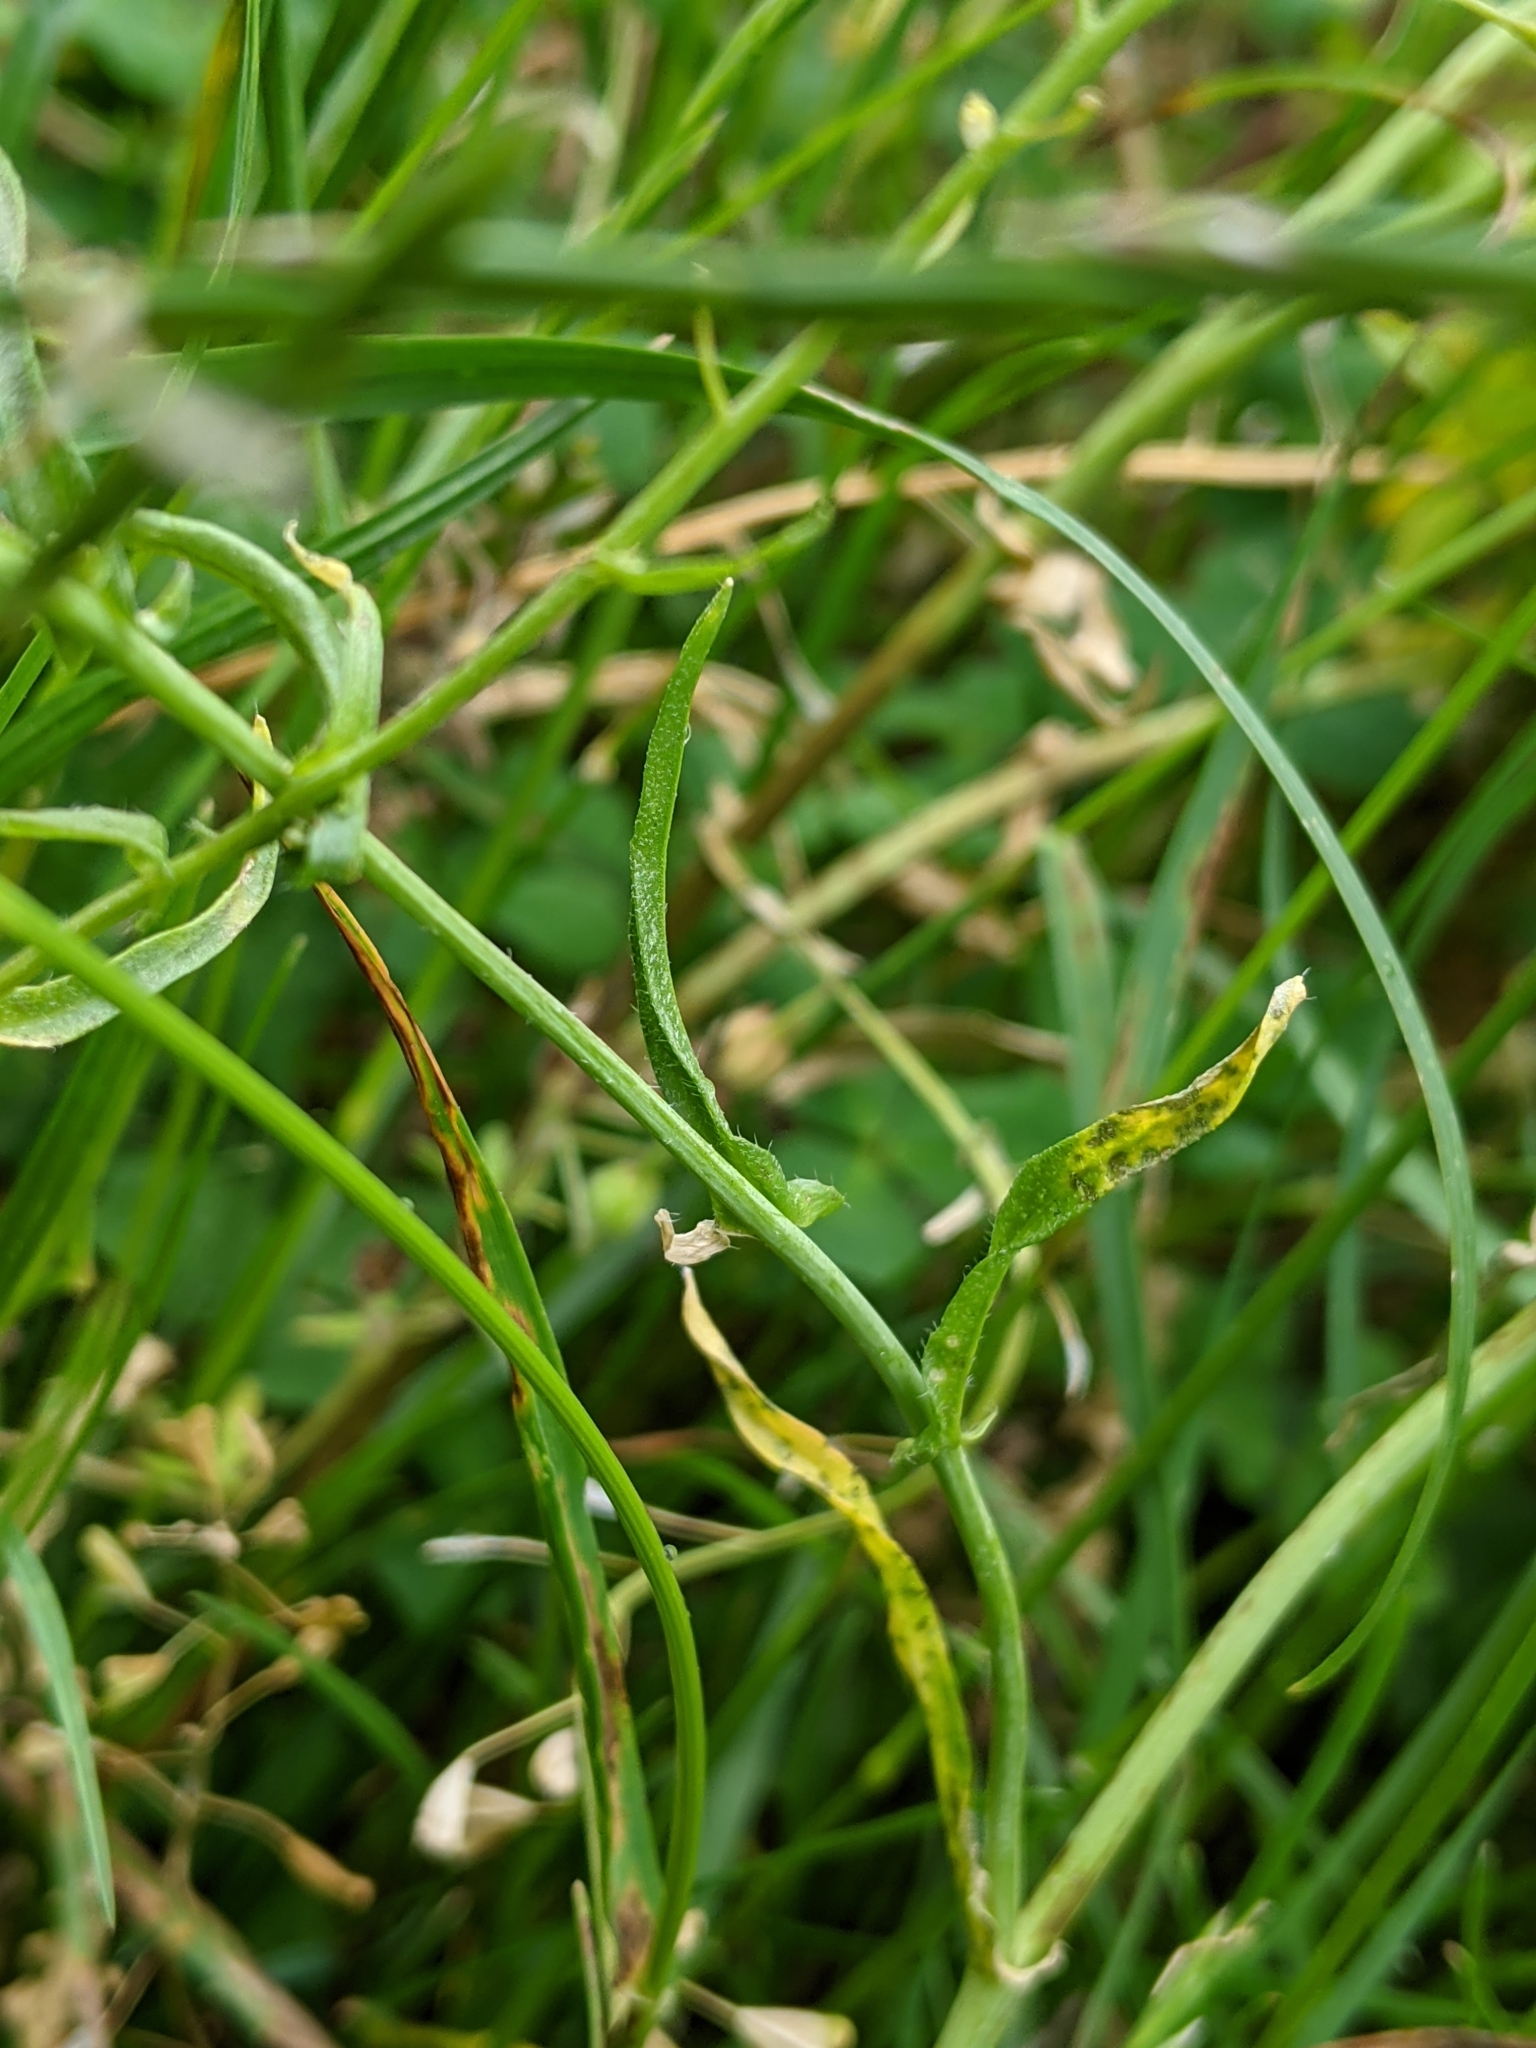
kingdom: Plantae
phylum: Tracheophyta
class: Magnoliopsida
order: Brassicales
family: Brassicaceae
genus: Capsella
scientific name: Capsella bursa-pastoris
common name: Shepherd's purse
